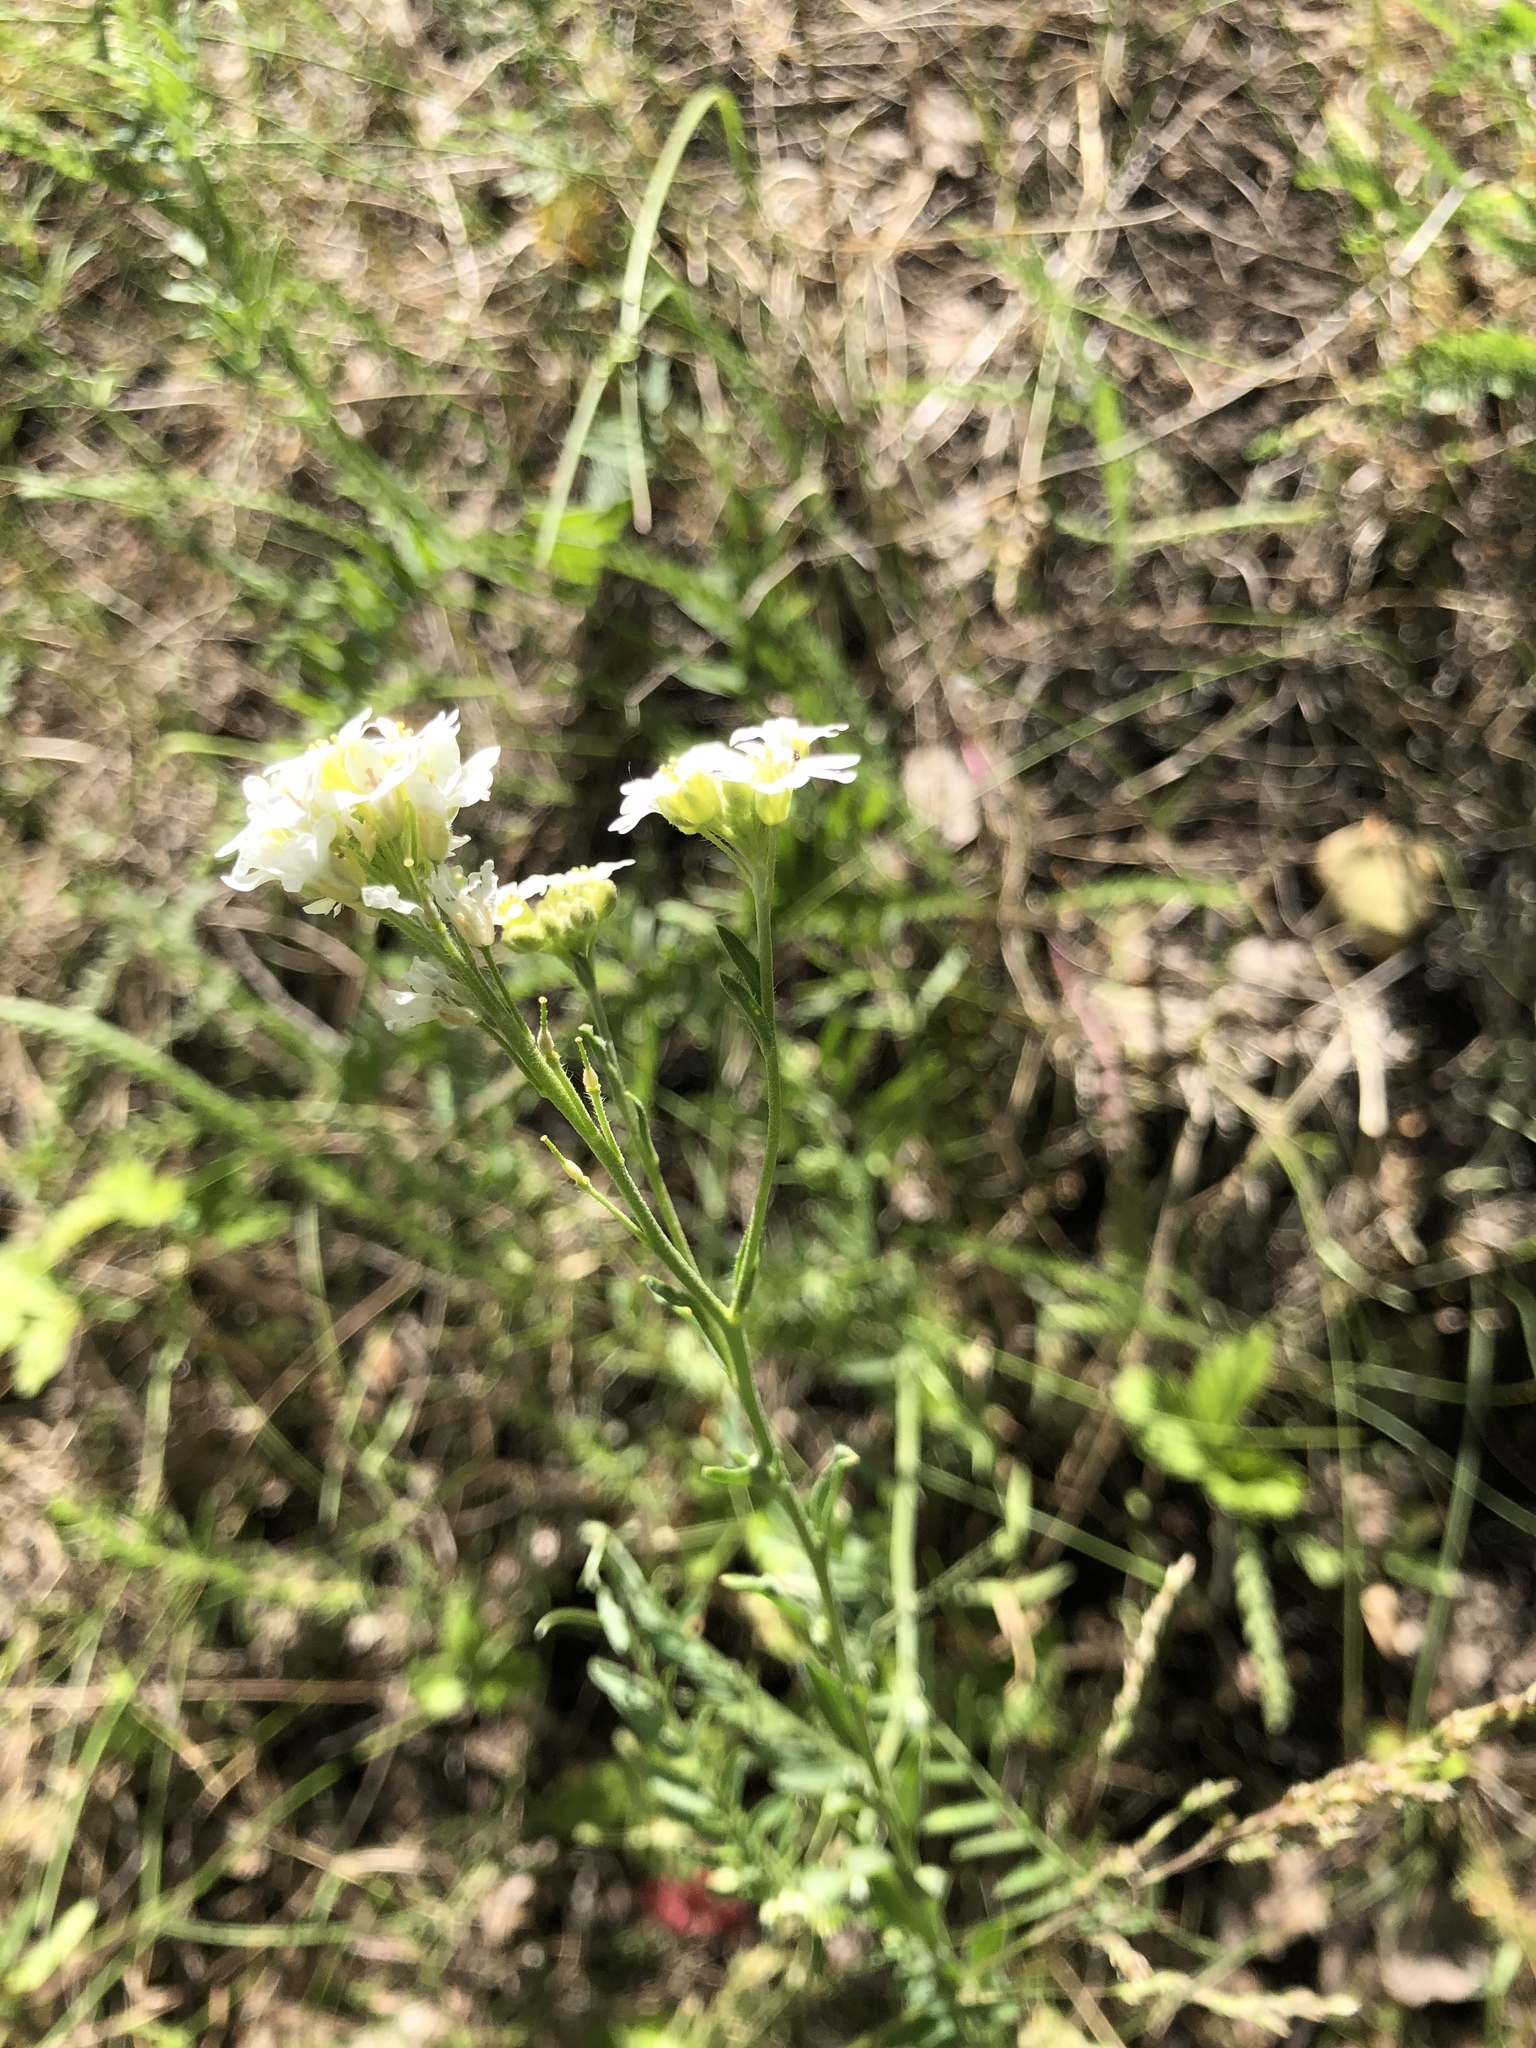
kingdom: Plantae
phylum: Tracheophyta
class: Magnoliopsida
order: Brassicales
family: Brassicaceae
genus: Berteroa
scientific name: Berteroa incana
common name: Hoary alison
